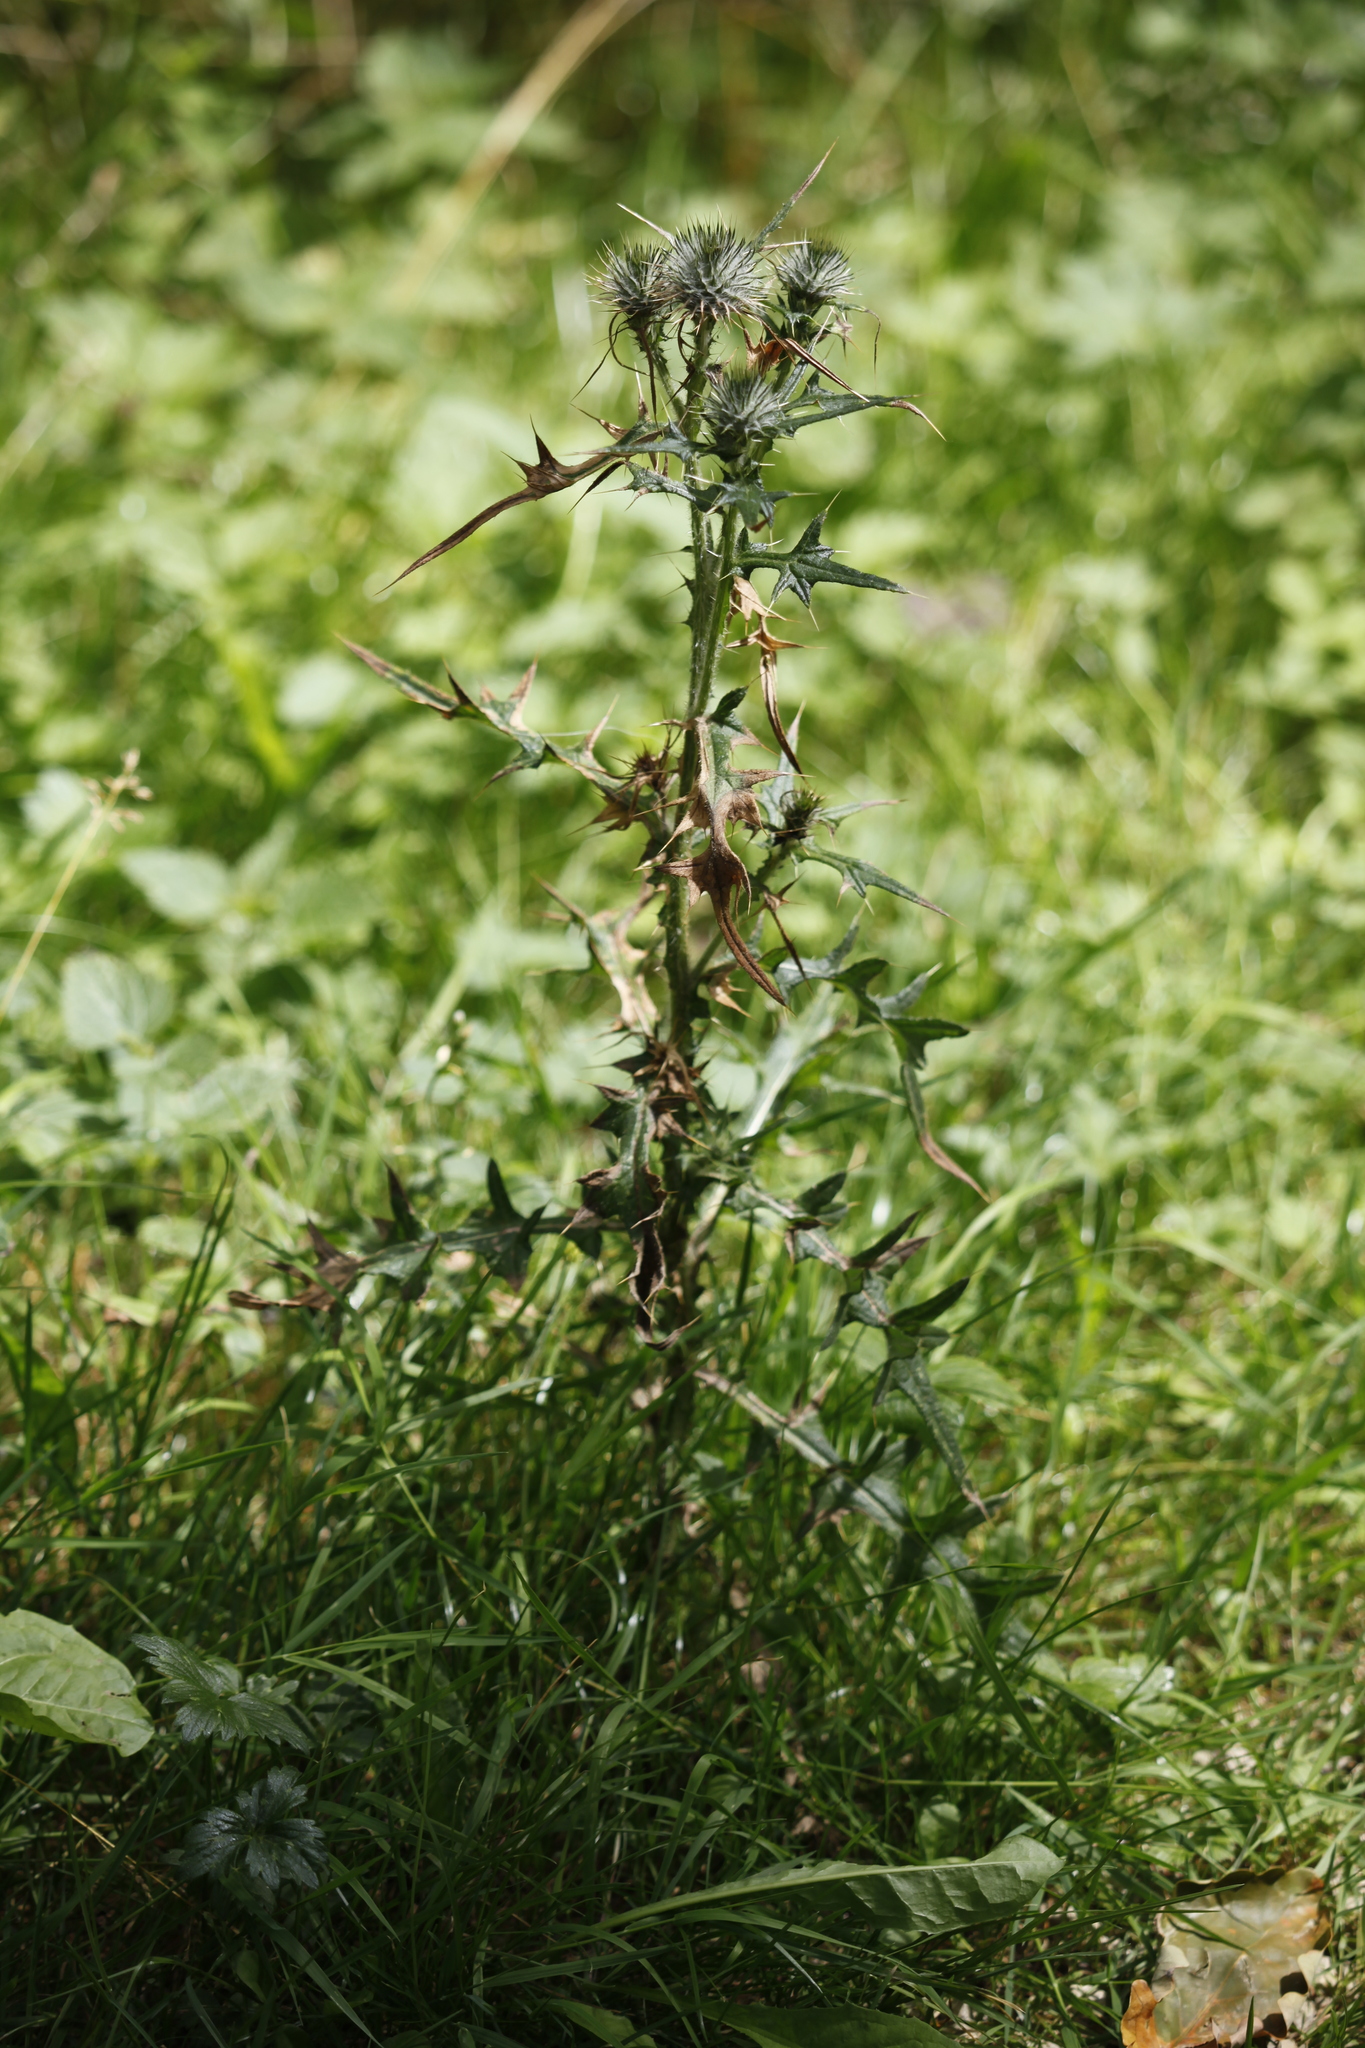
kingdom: Plantae
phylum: Tracheophyta
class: Magnoliopsida
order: Asterales
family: Asteraceae
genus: Cirsium
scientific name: Cirsium vulgare
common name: Bull thistle
